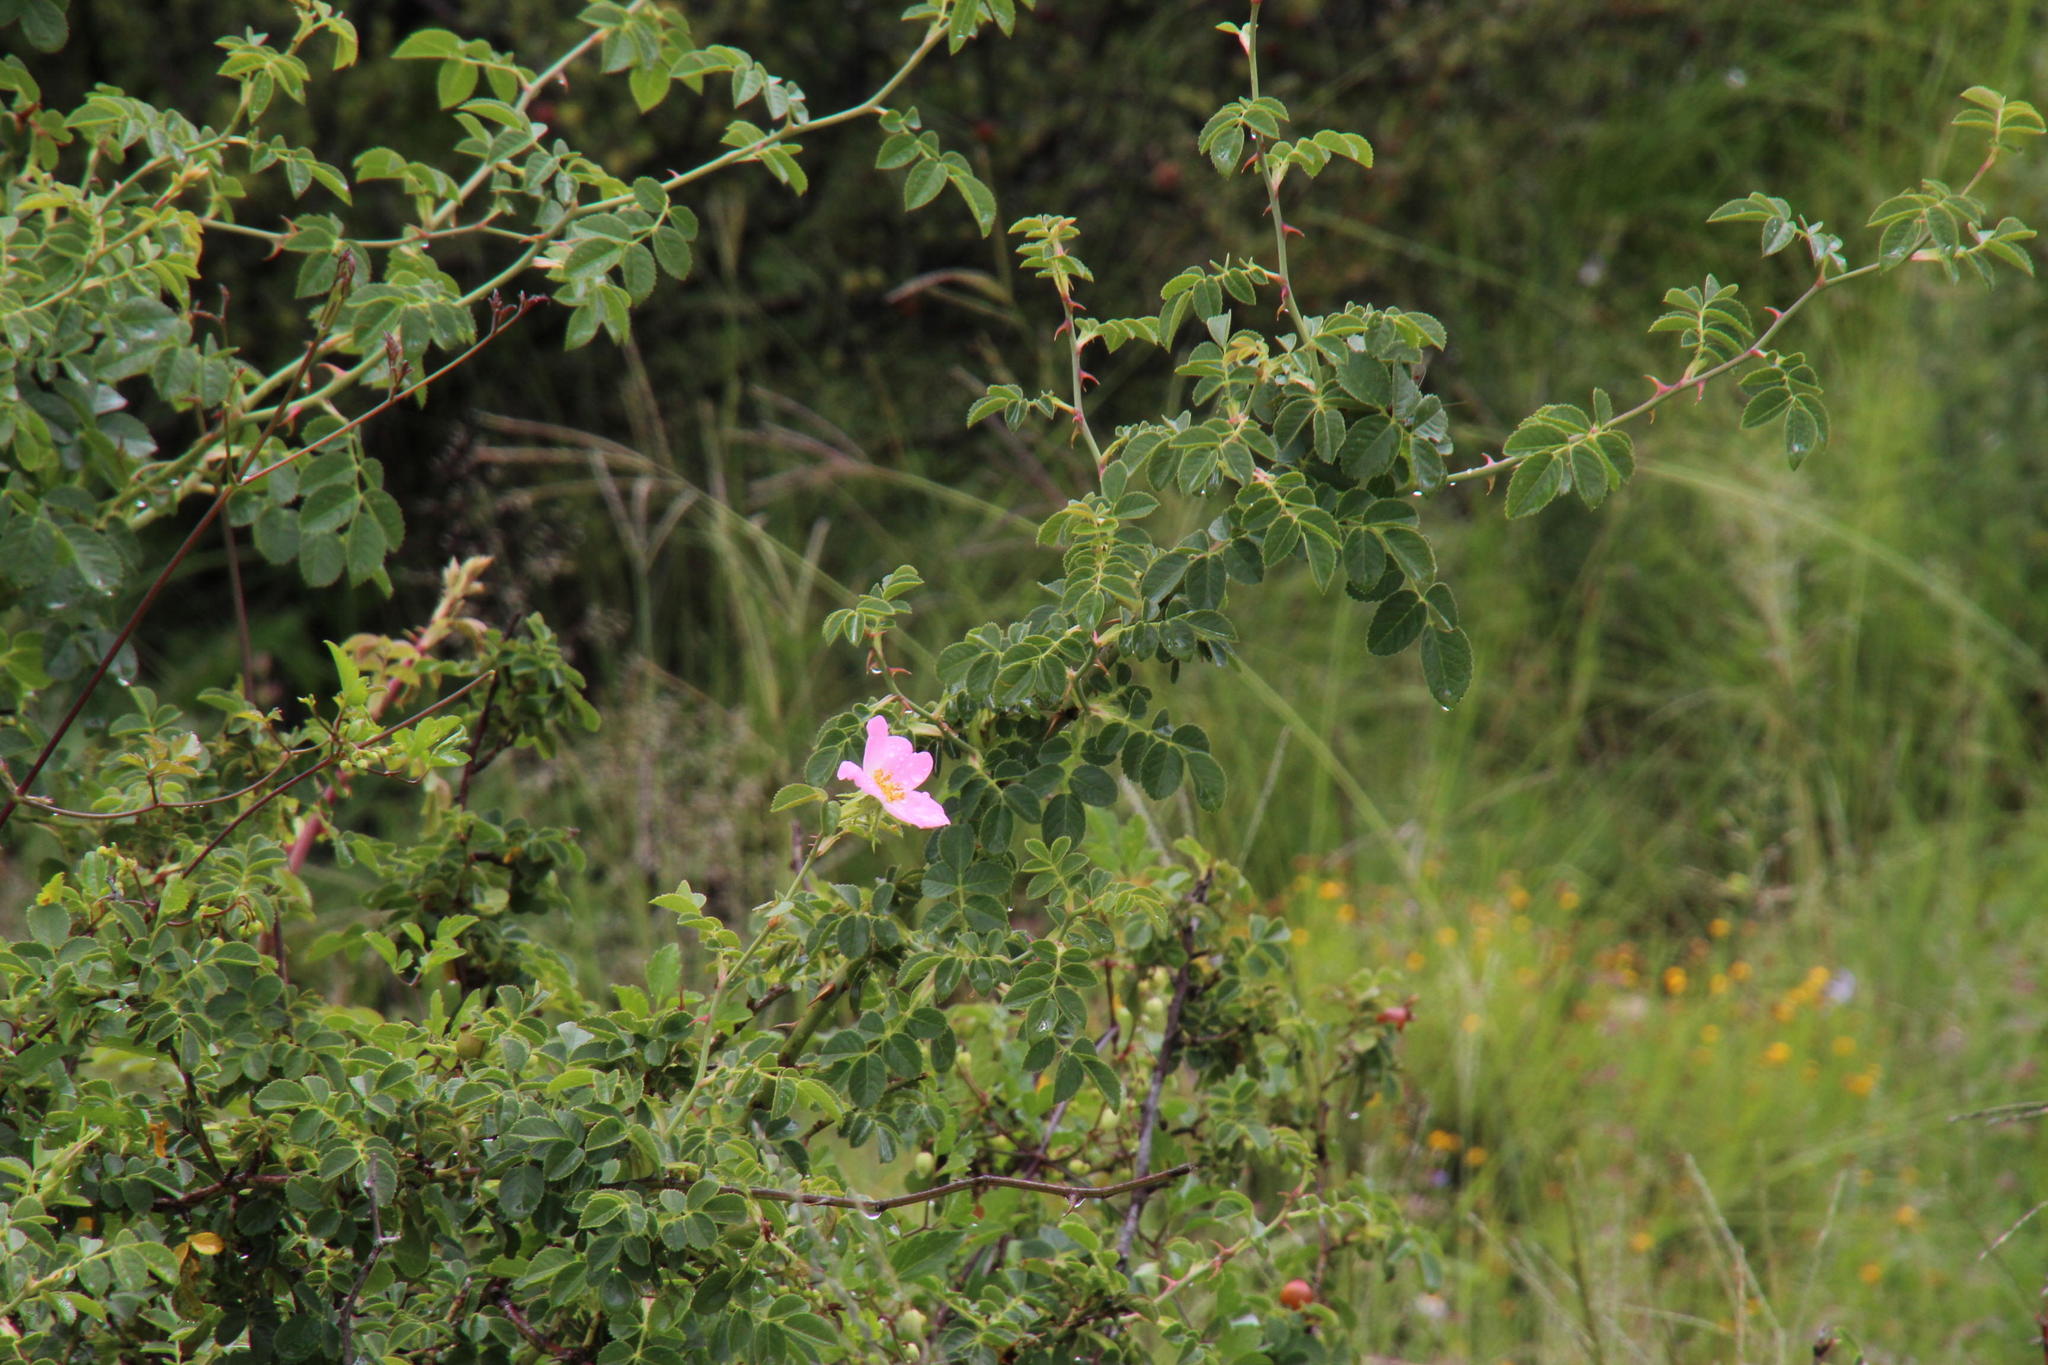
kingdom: Plantae
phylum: Tracheophyta
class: Magnoliopsida
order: Rosales
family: Rosaceae
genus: Rosa
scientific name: Rosa rubiginosa
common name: Sweet-briar
